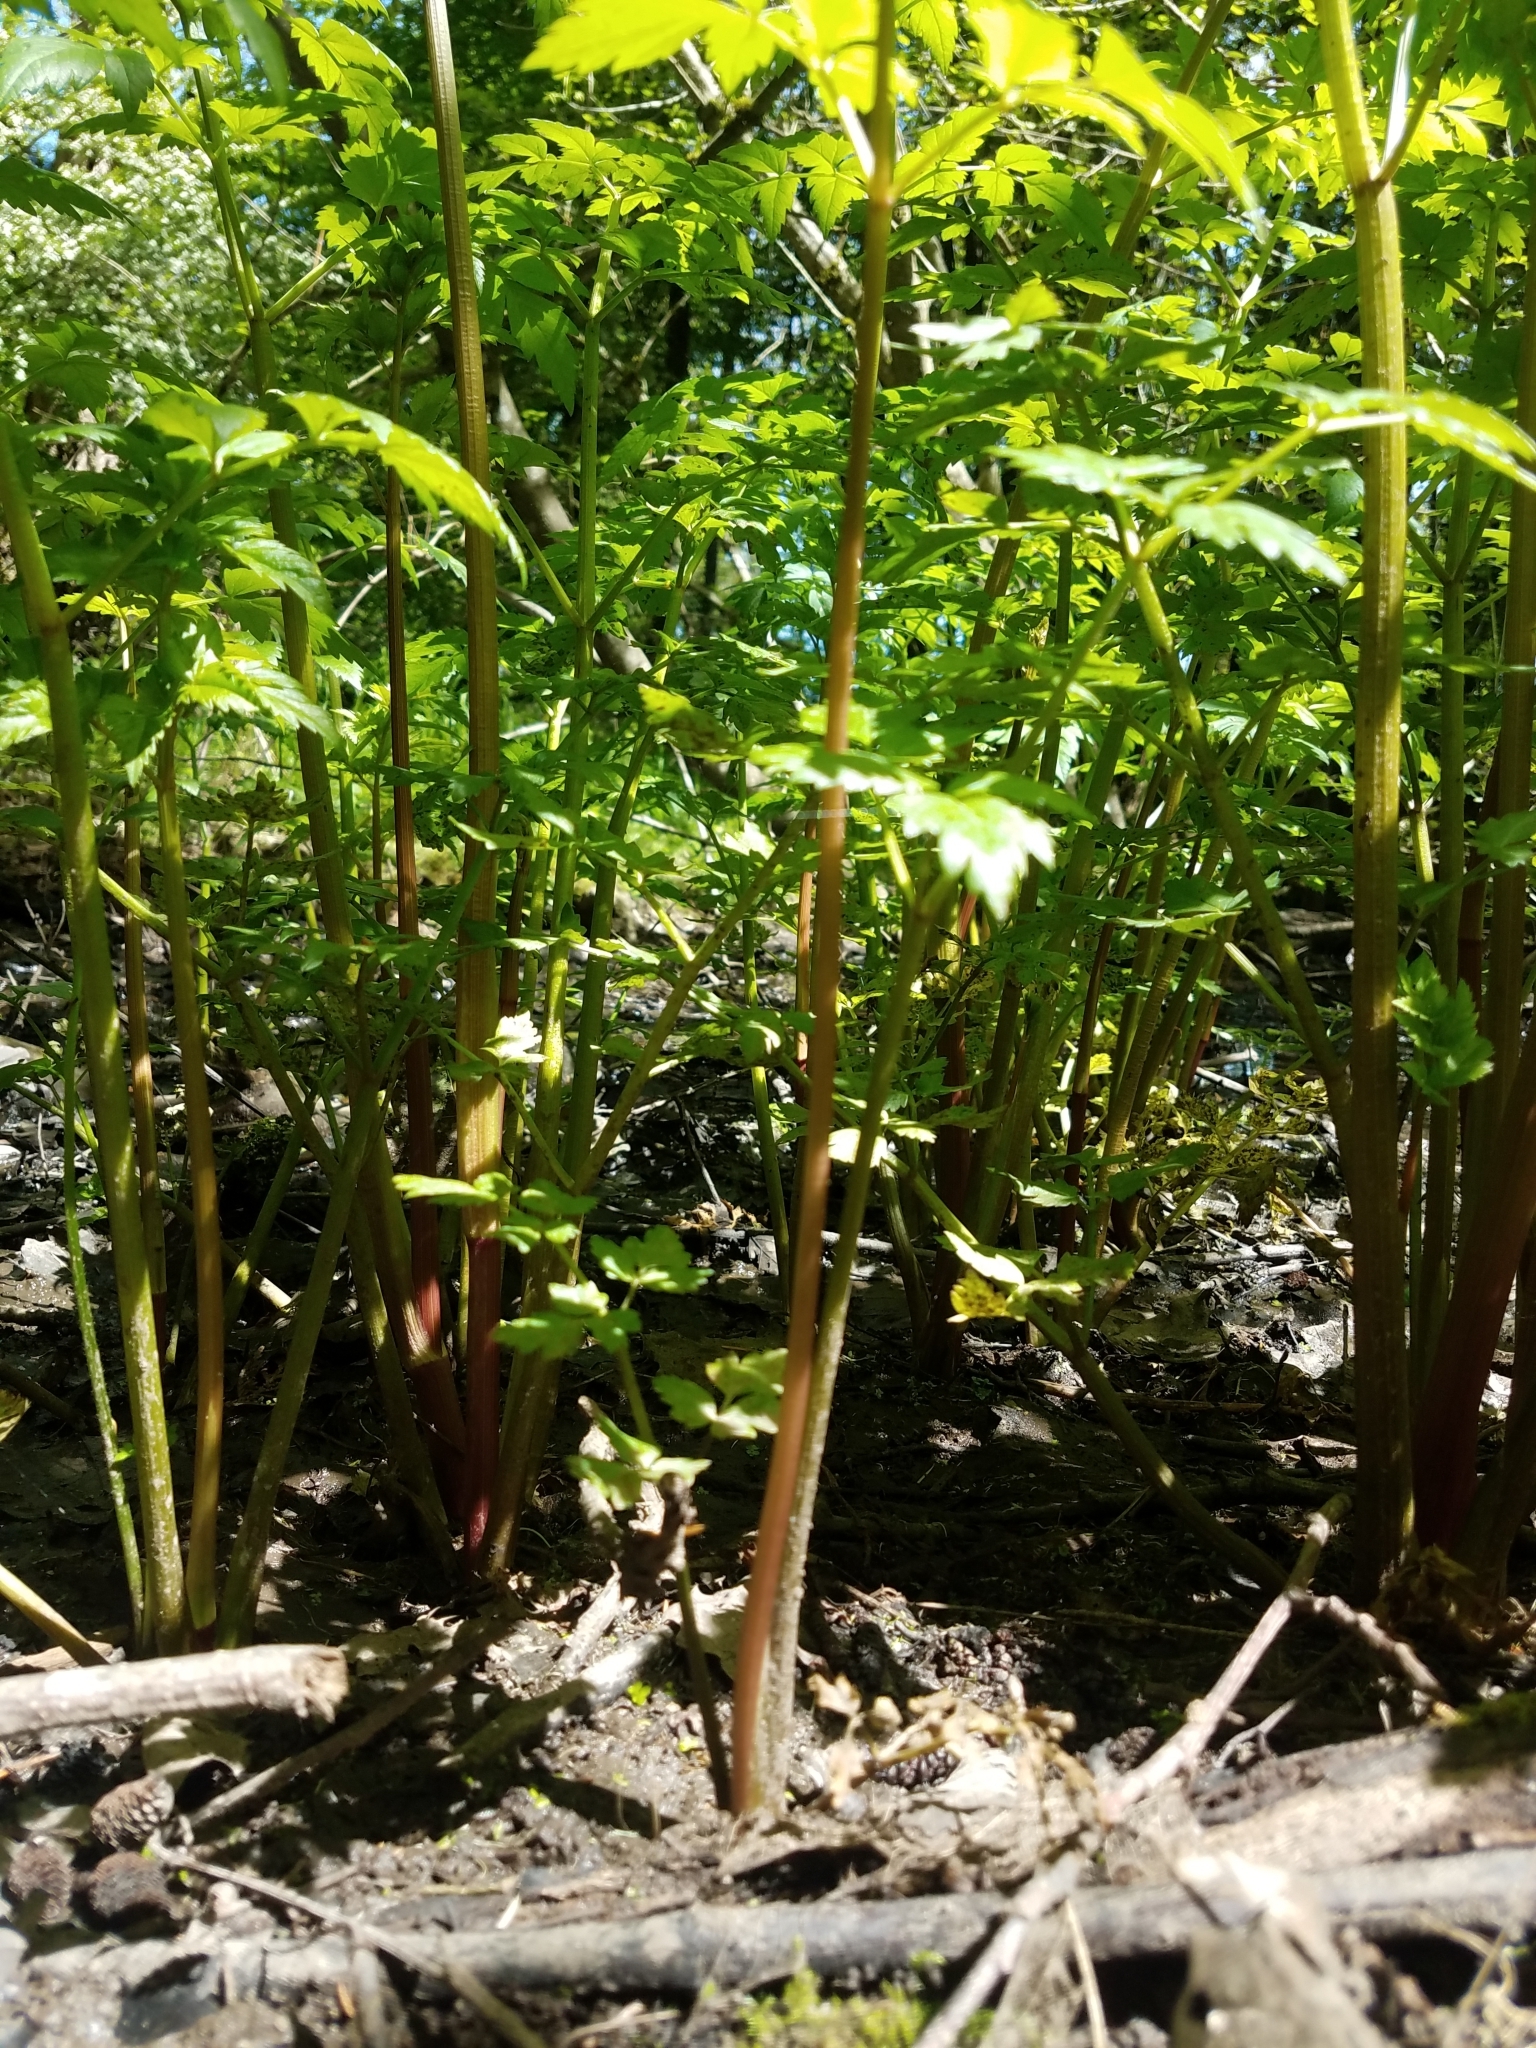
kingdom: Plantae
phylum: Tracheophyta
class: Magnoliopsida
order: Apiales
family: Apiaceae
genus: Oenanthe
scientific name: Oenanthe sarmentosa
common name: American water-parsley
